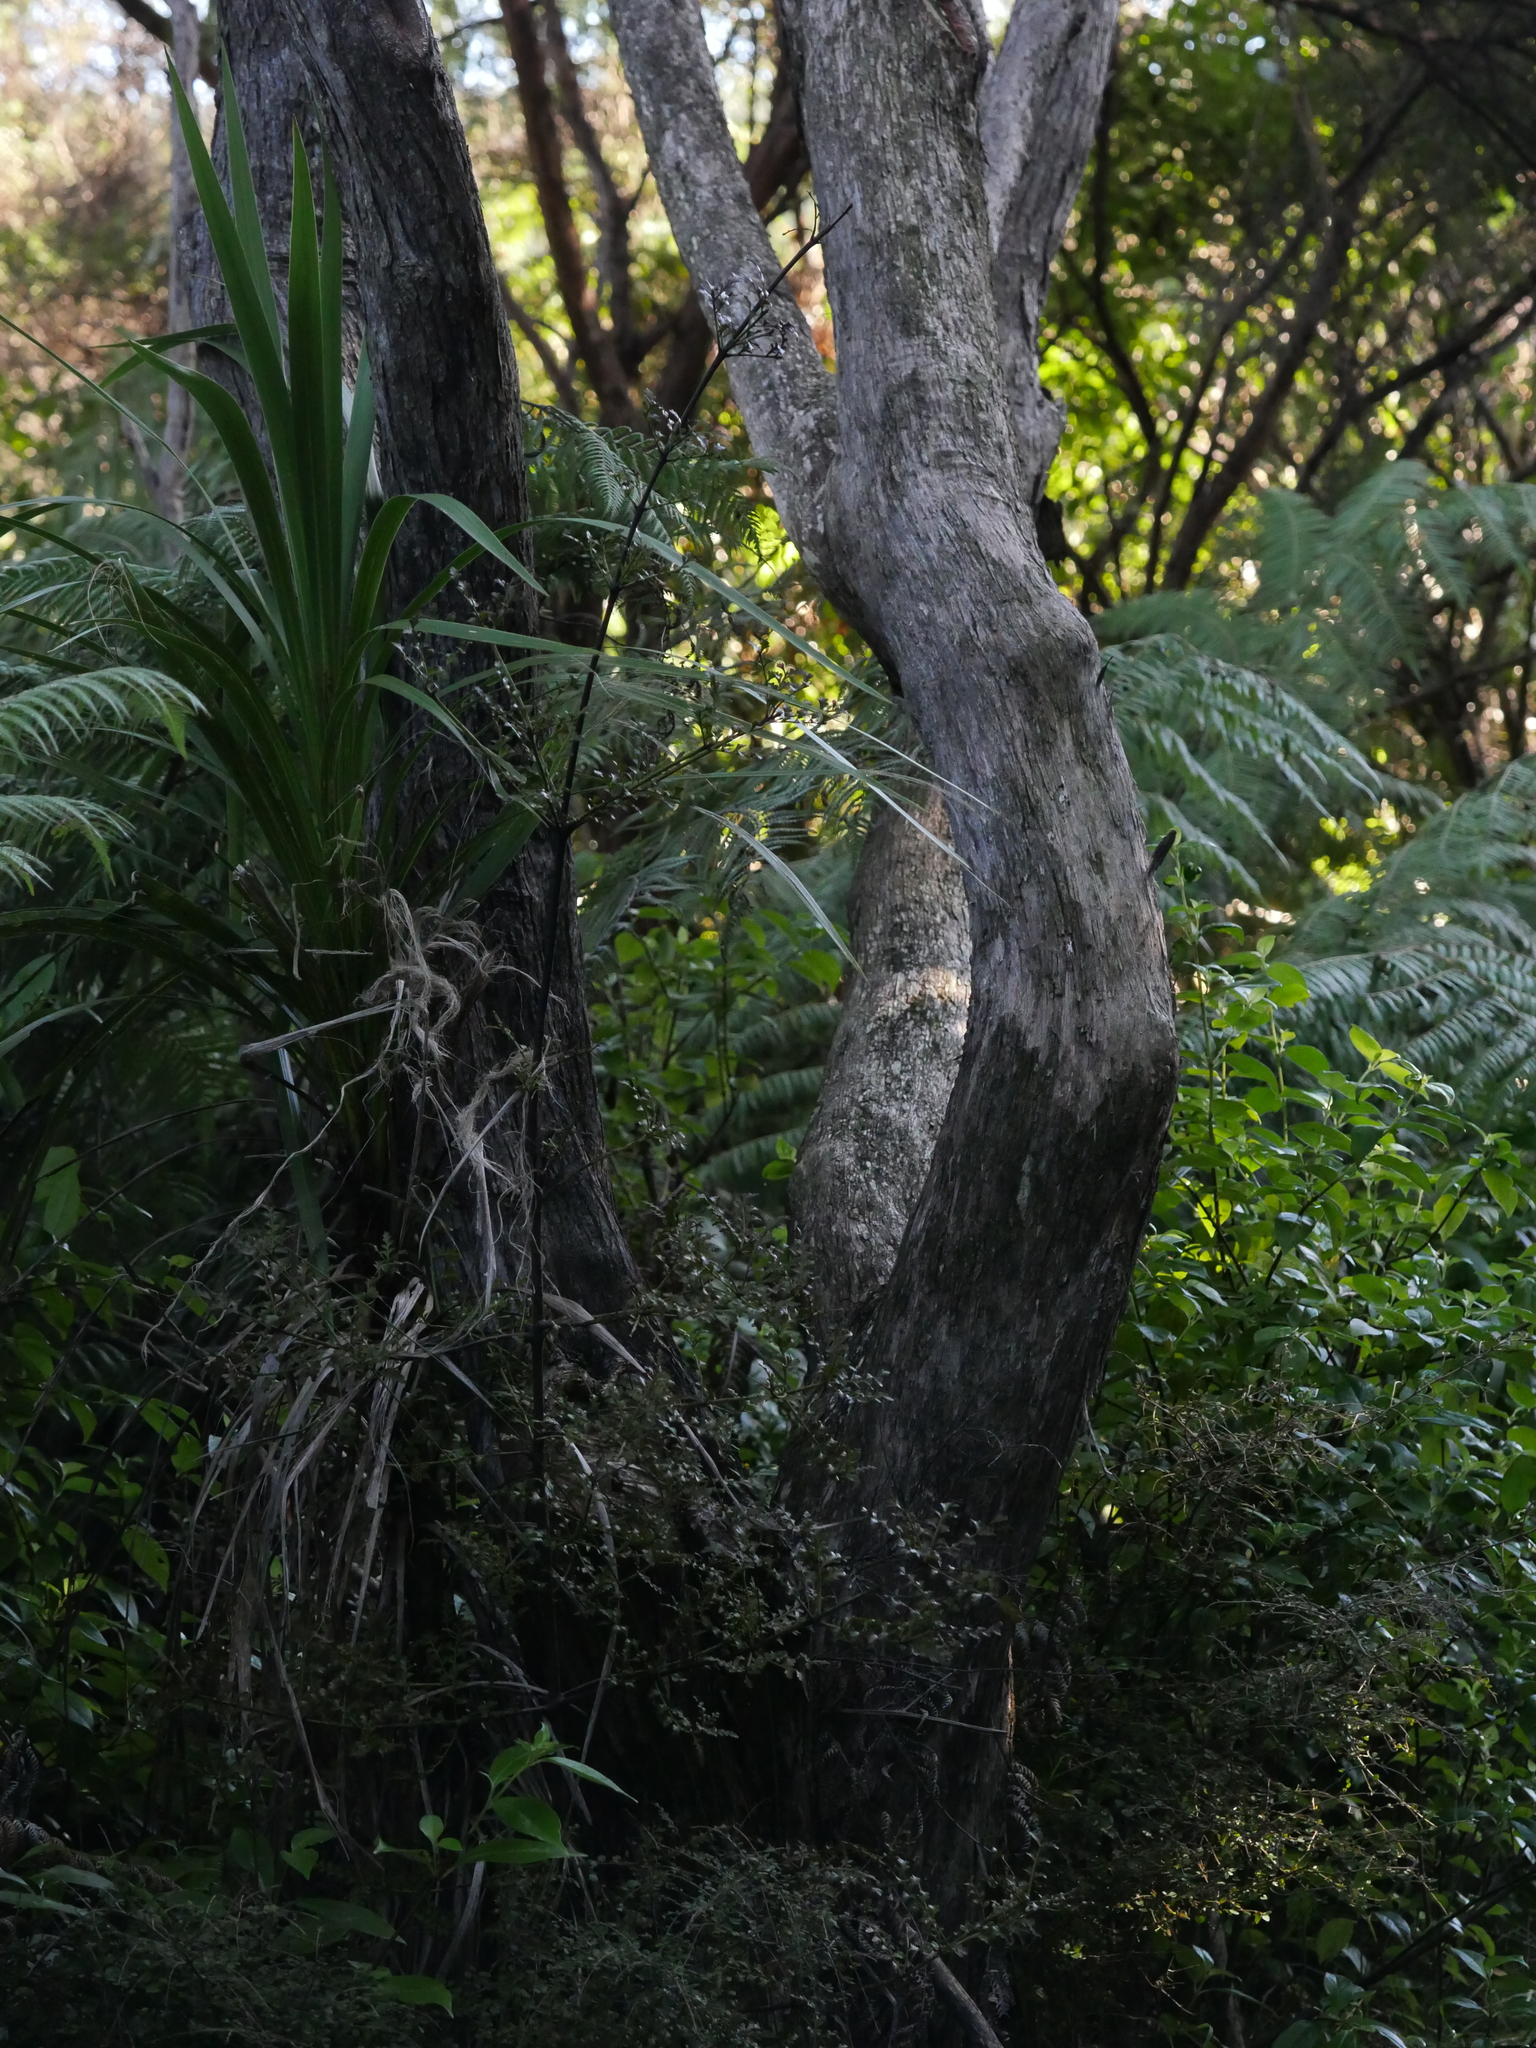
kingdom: Plantae
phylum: Tracheophyta
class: Pinopsida
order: Pinales
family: Phyllocladaceae
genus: Phyllocladus
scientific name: Phyllocladus trichomanoides
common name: Celery pine
